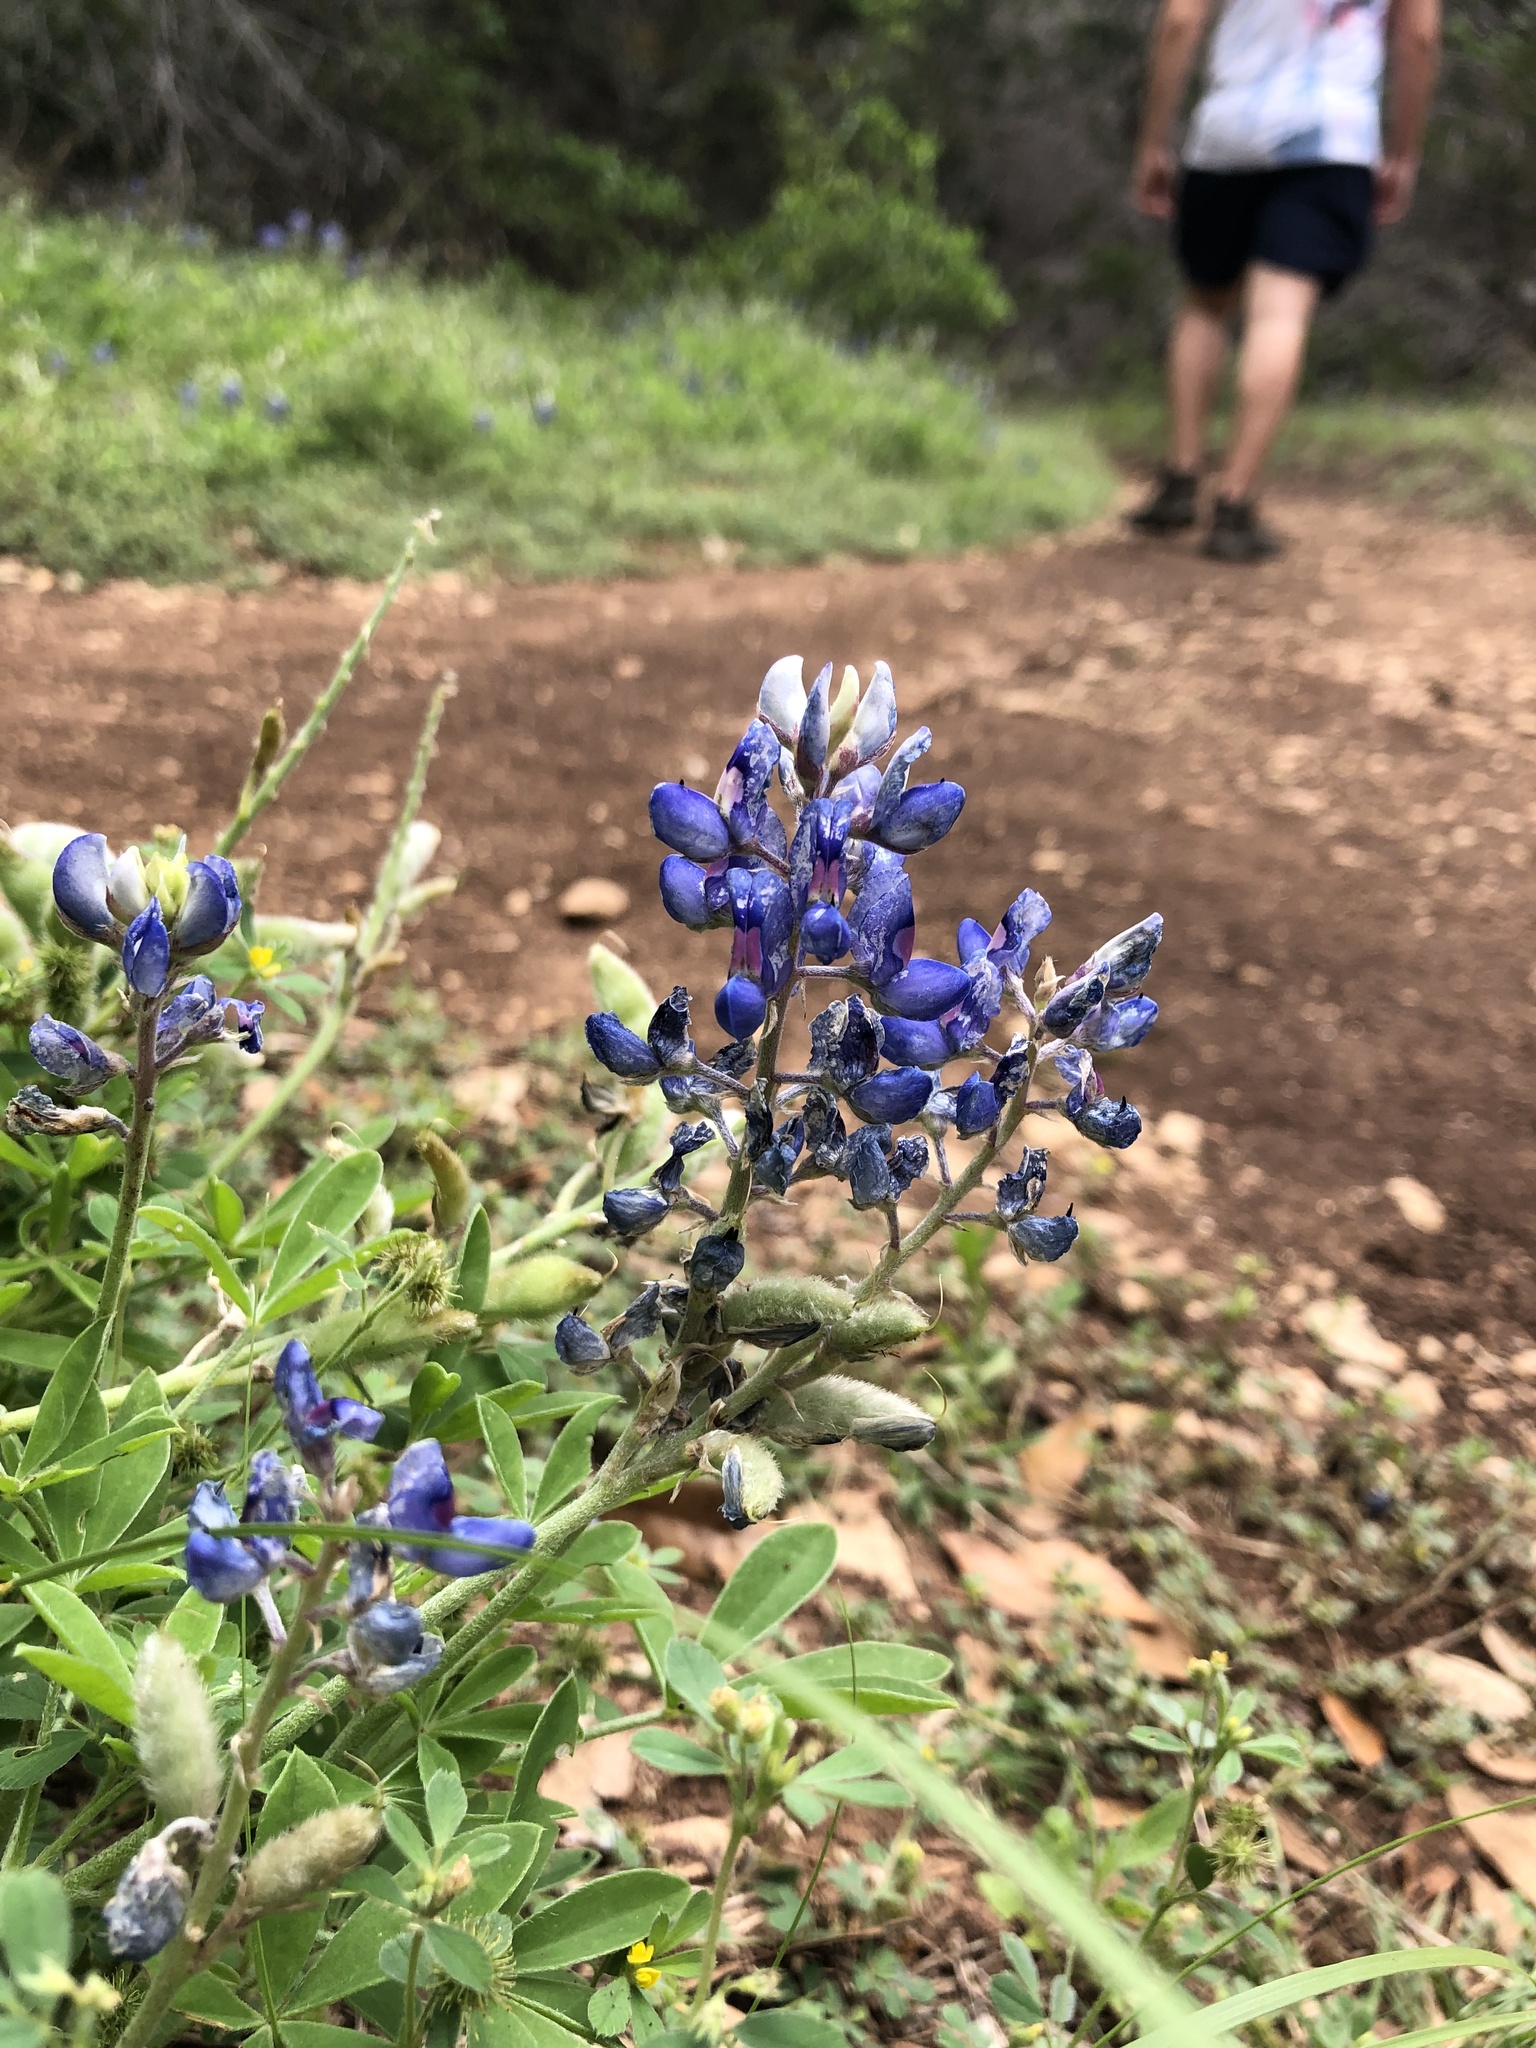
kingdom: Plantae
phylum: Tracheophyta
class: Magnoliopsida
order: Fabales
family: Fabaceae
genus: Lupinus
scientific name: Lupinus texensis
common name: Texas bluebonnet
